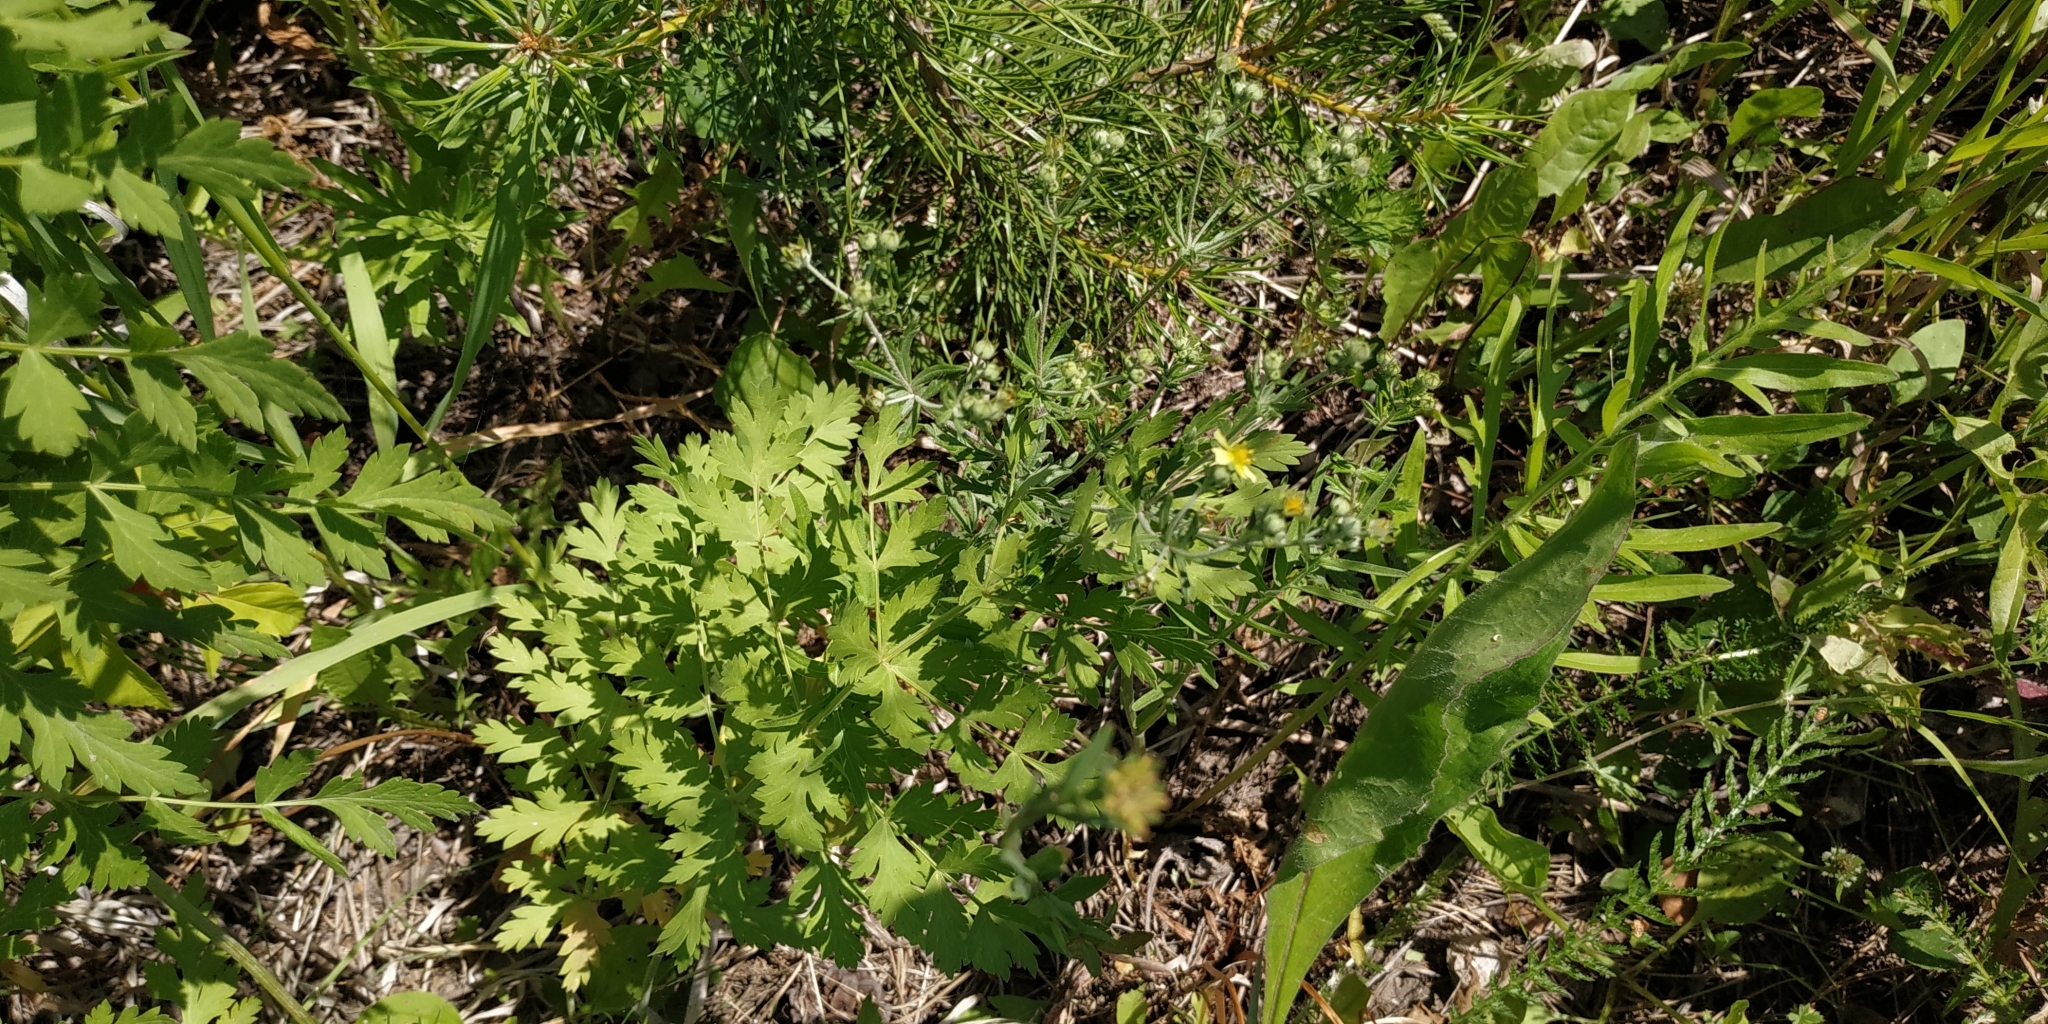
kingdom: Plantae
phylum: Tracheophyta
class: Magnoliopsida
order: Apiales
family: Apiaceae
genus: Seseli
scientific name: Seseli libanotis
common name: Mooncarrot
